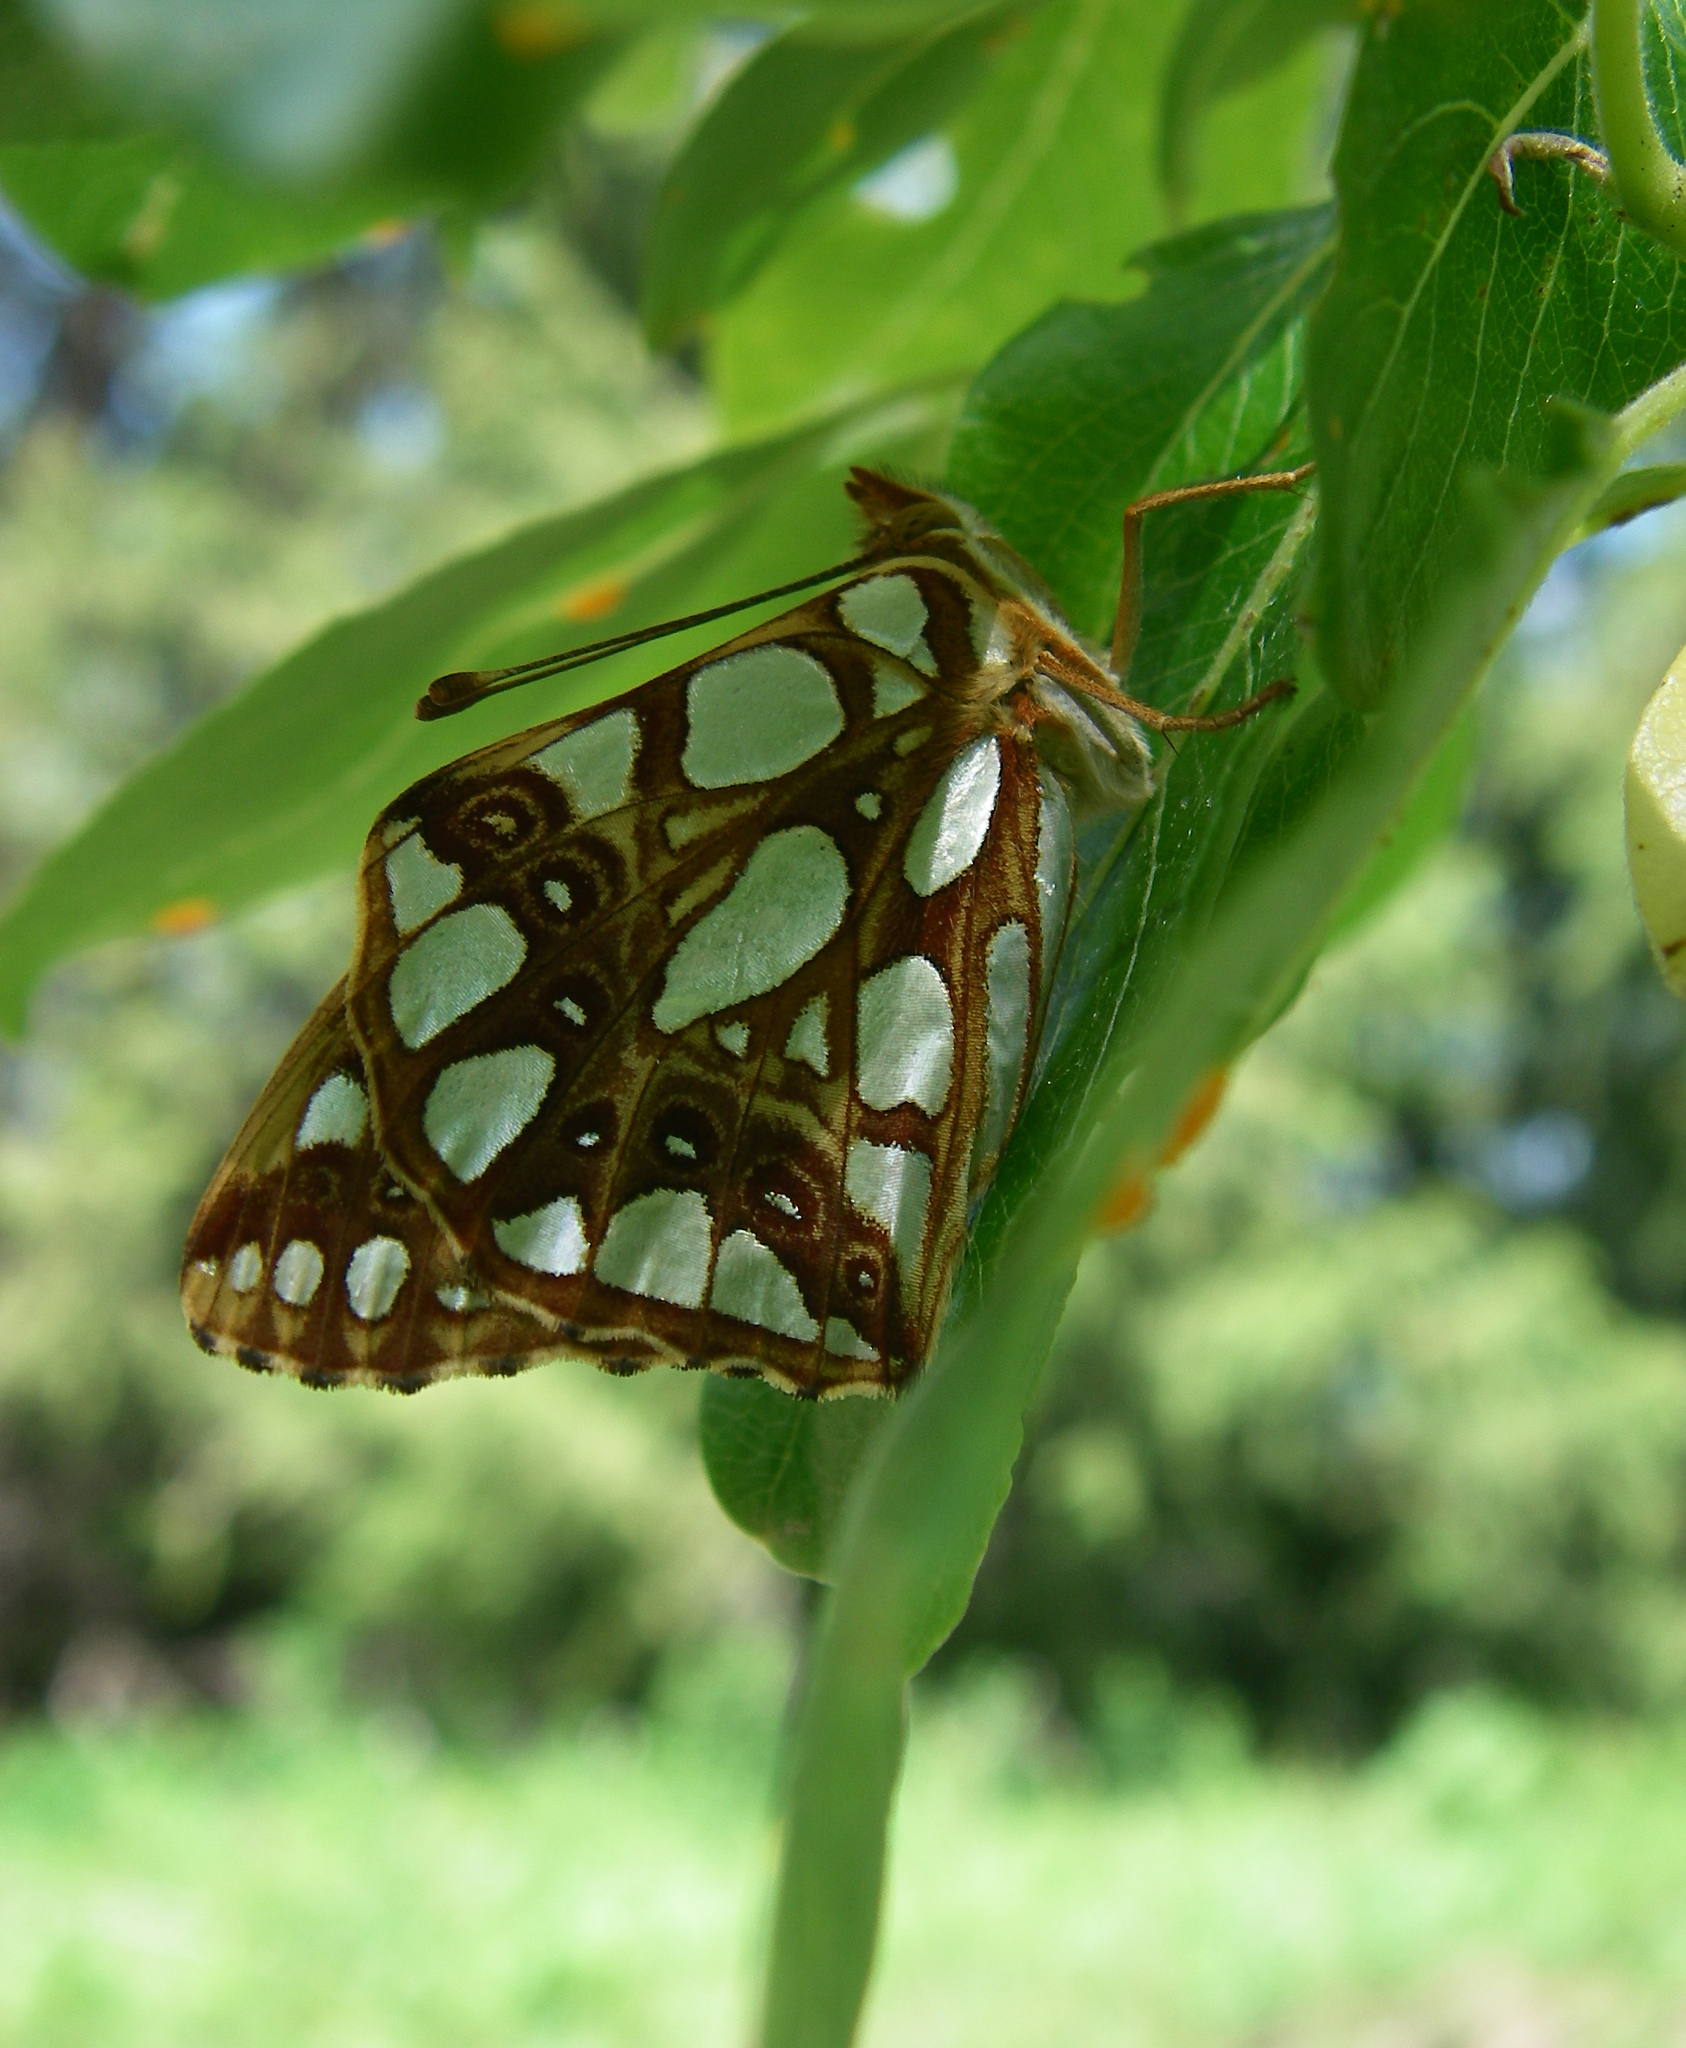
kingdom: Animalia
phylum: Arthropoda
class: Insecta
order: Lepidoptera
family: Nymphalidae
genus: Issoria
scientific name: Issoria lathonia
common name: Queen of spain fritillary
